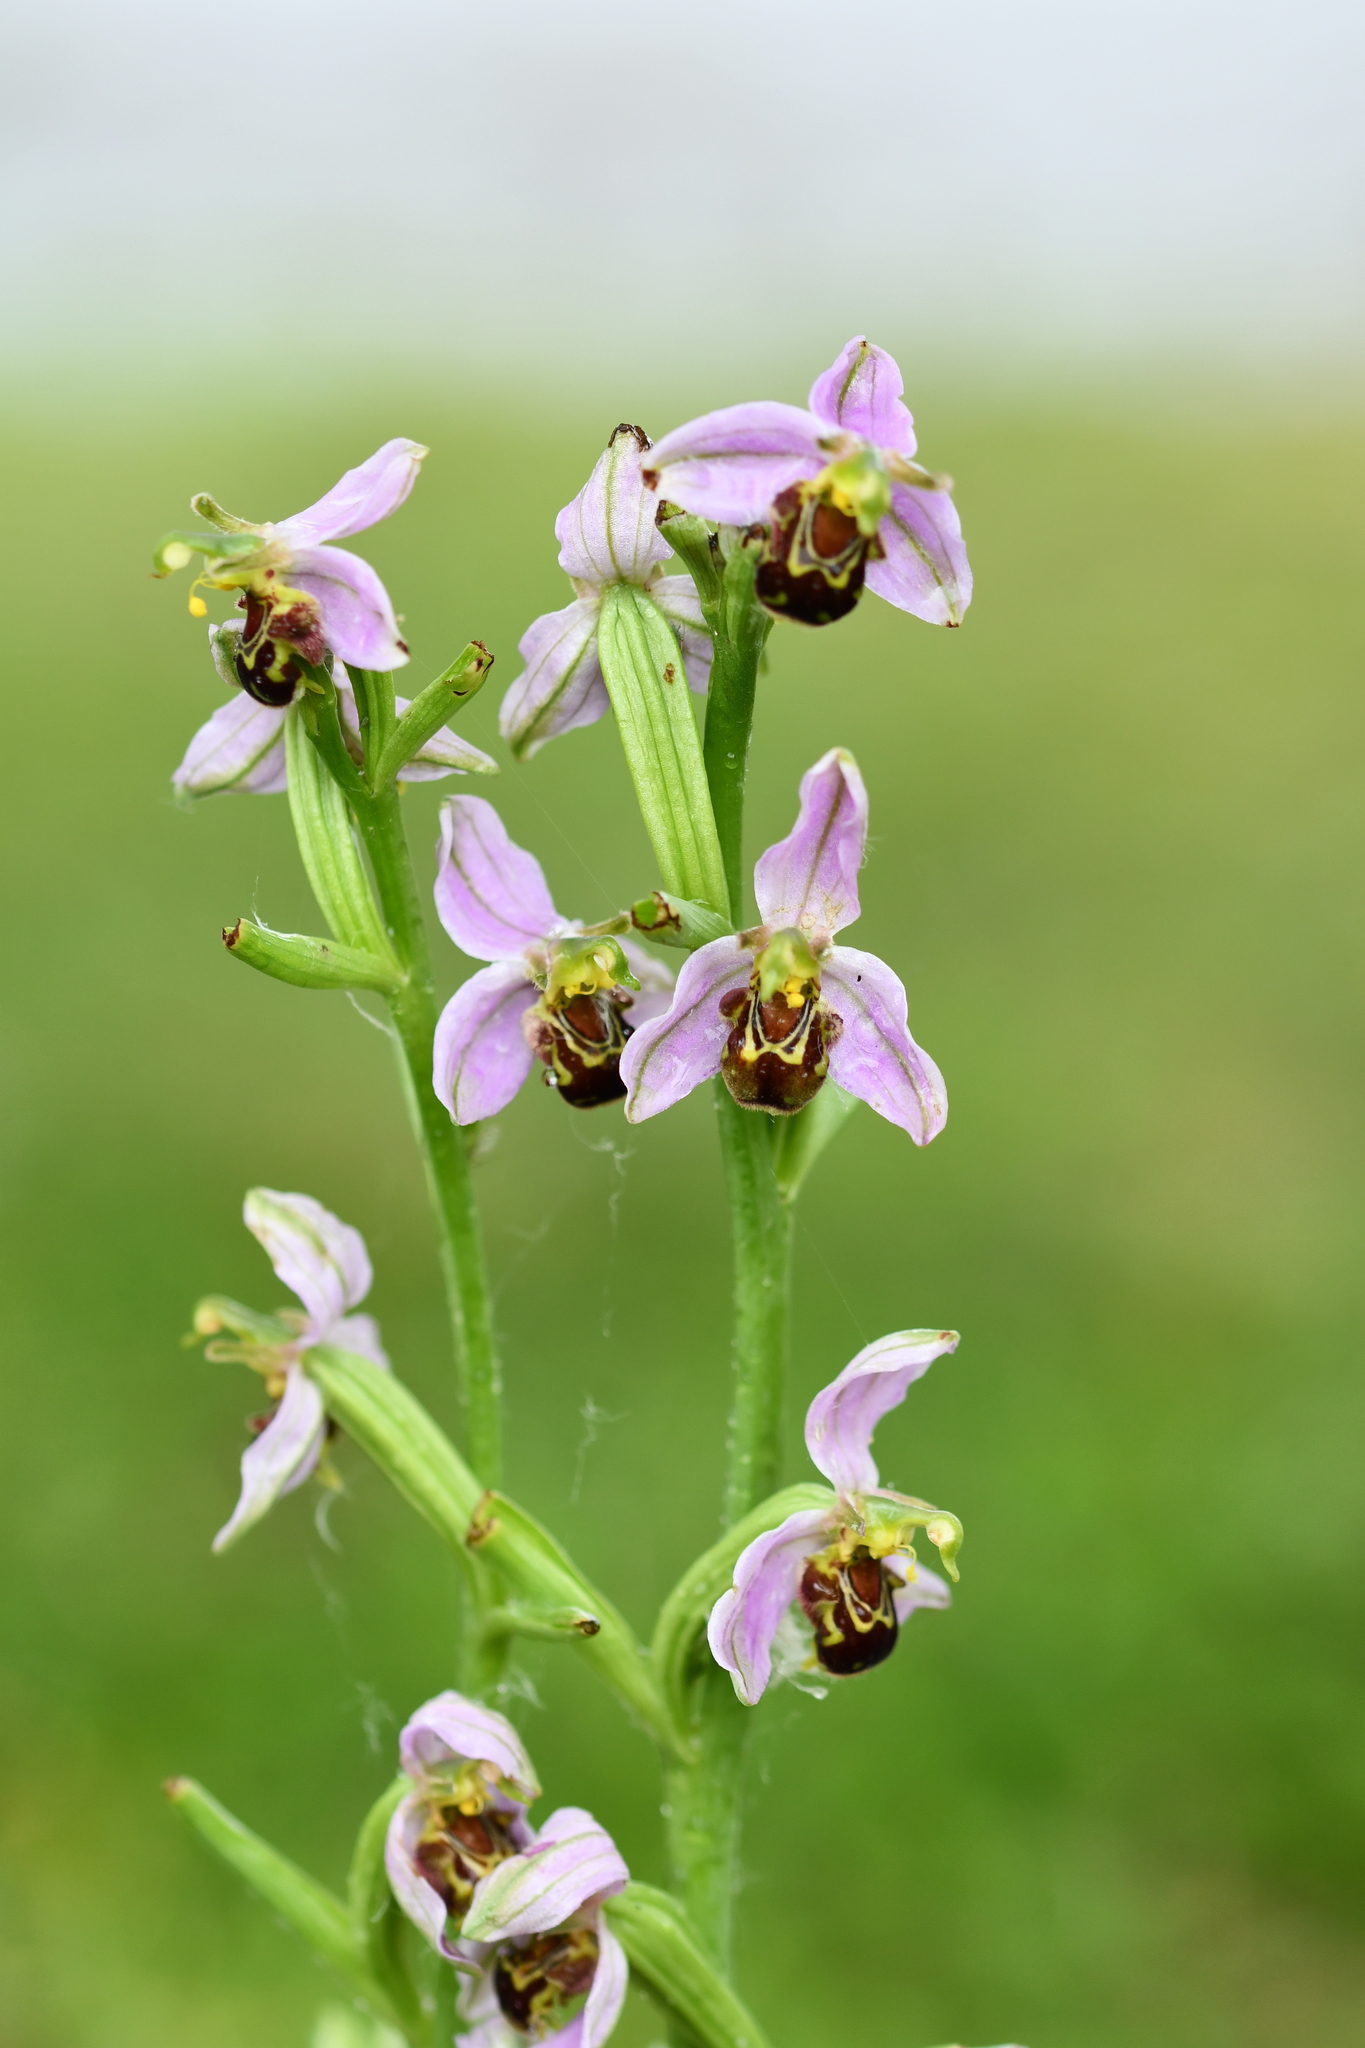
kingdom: Plantae
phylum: Tracheophyta
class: Liliopsida
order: Asparagales
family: Orchidaceae
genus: Ophrys
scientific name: Ophrys apifera
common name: Bee orchid
